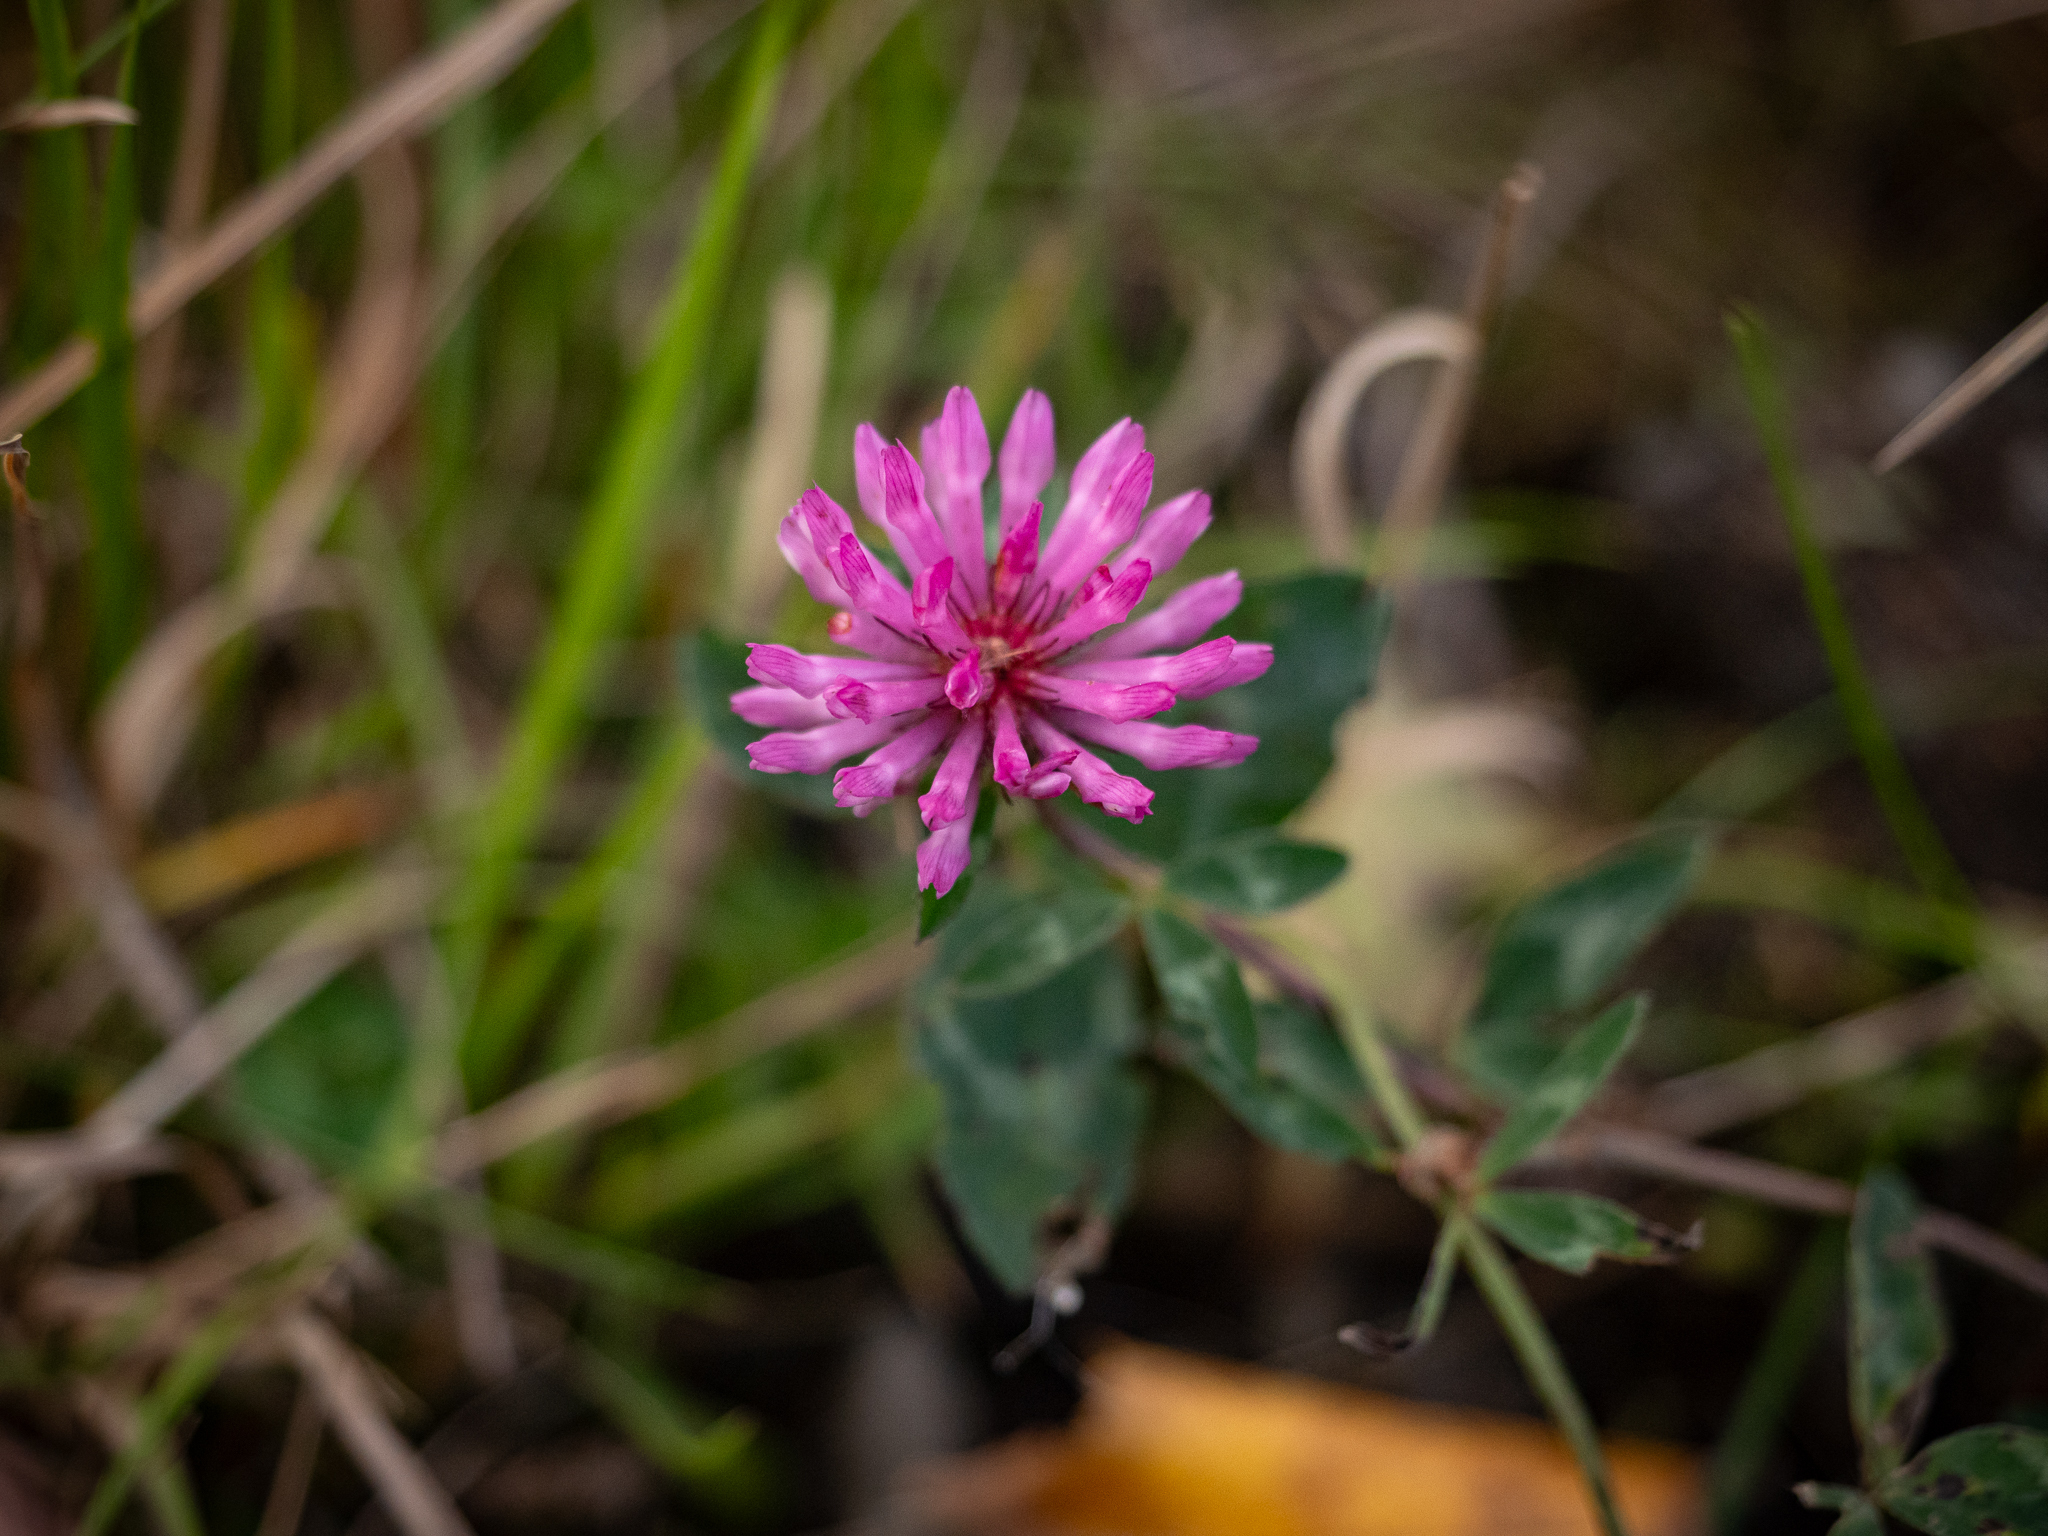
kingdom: Plantae
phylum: Tracheophyta
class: Magnoliopsida
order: Fabales
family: Fabaceae
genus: Trifolium
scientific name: Trifolium pratense
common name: Red clover
